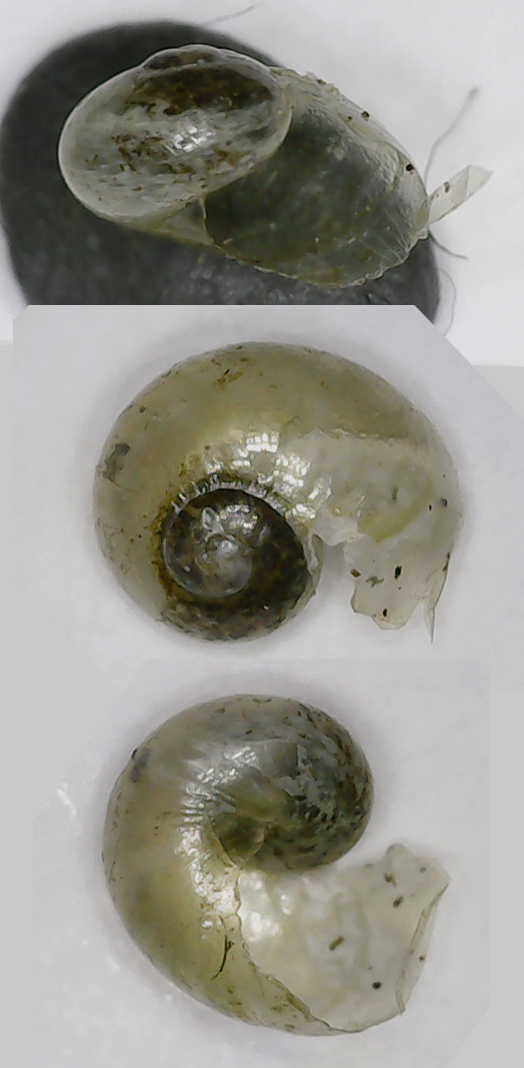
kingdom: Animalia
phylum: Mollusca
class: Gastropoda
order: Stylommatophora
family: Vitrinidae
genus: Vitrina
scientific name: Vitrina pellucida
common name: Pellucid glass snail
